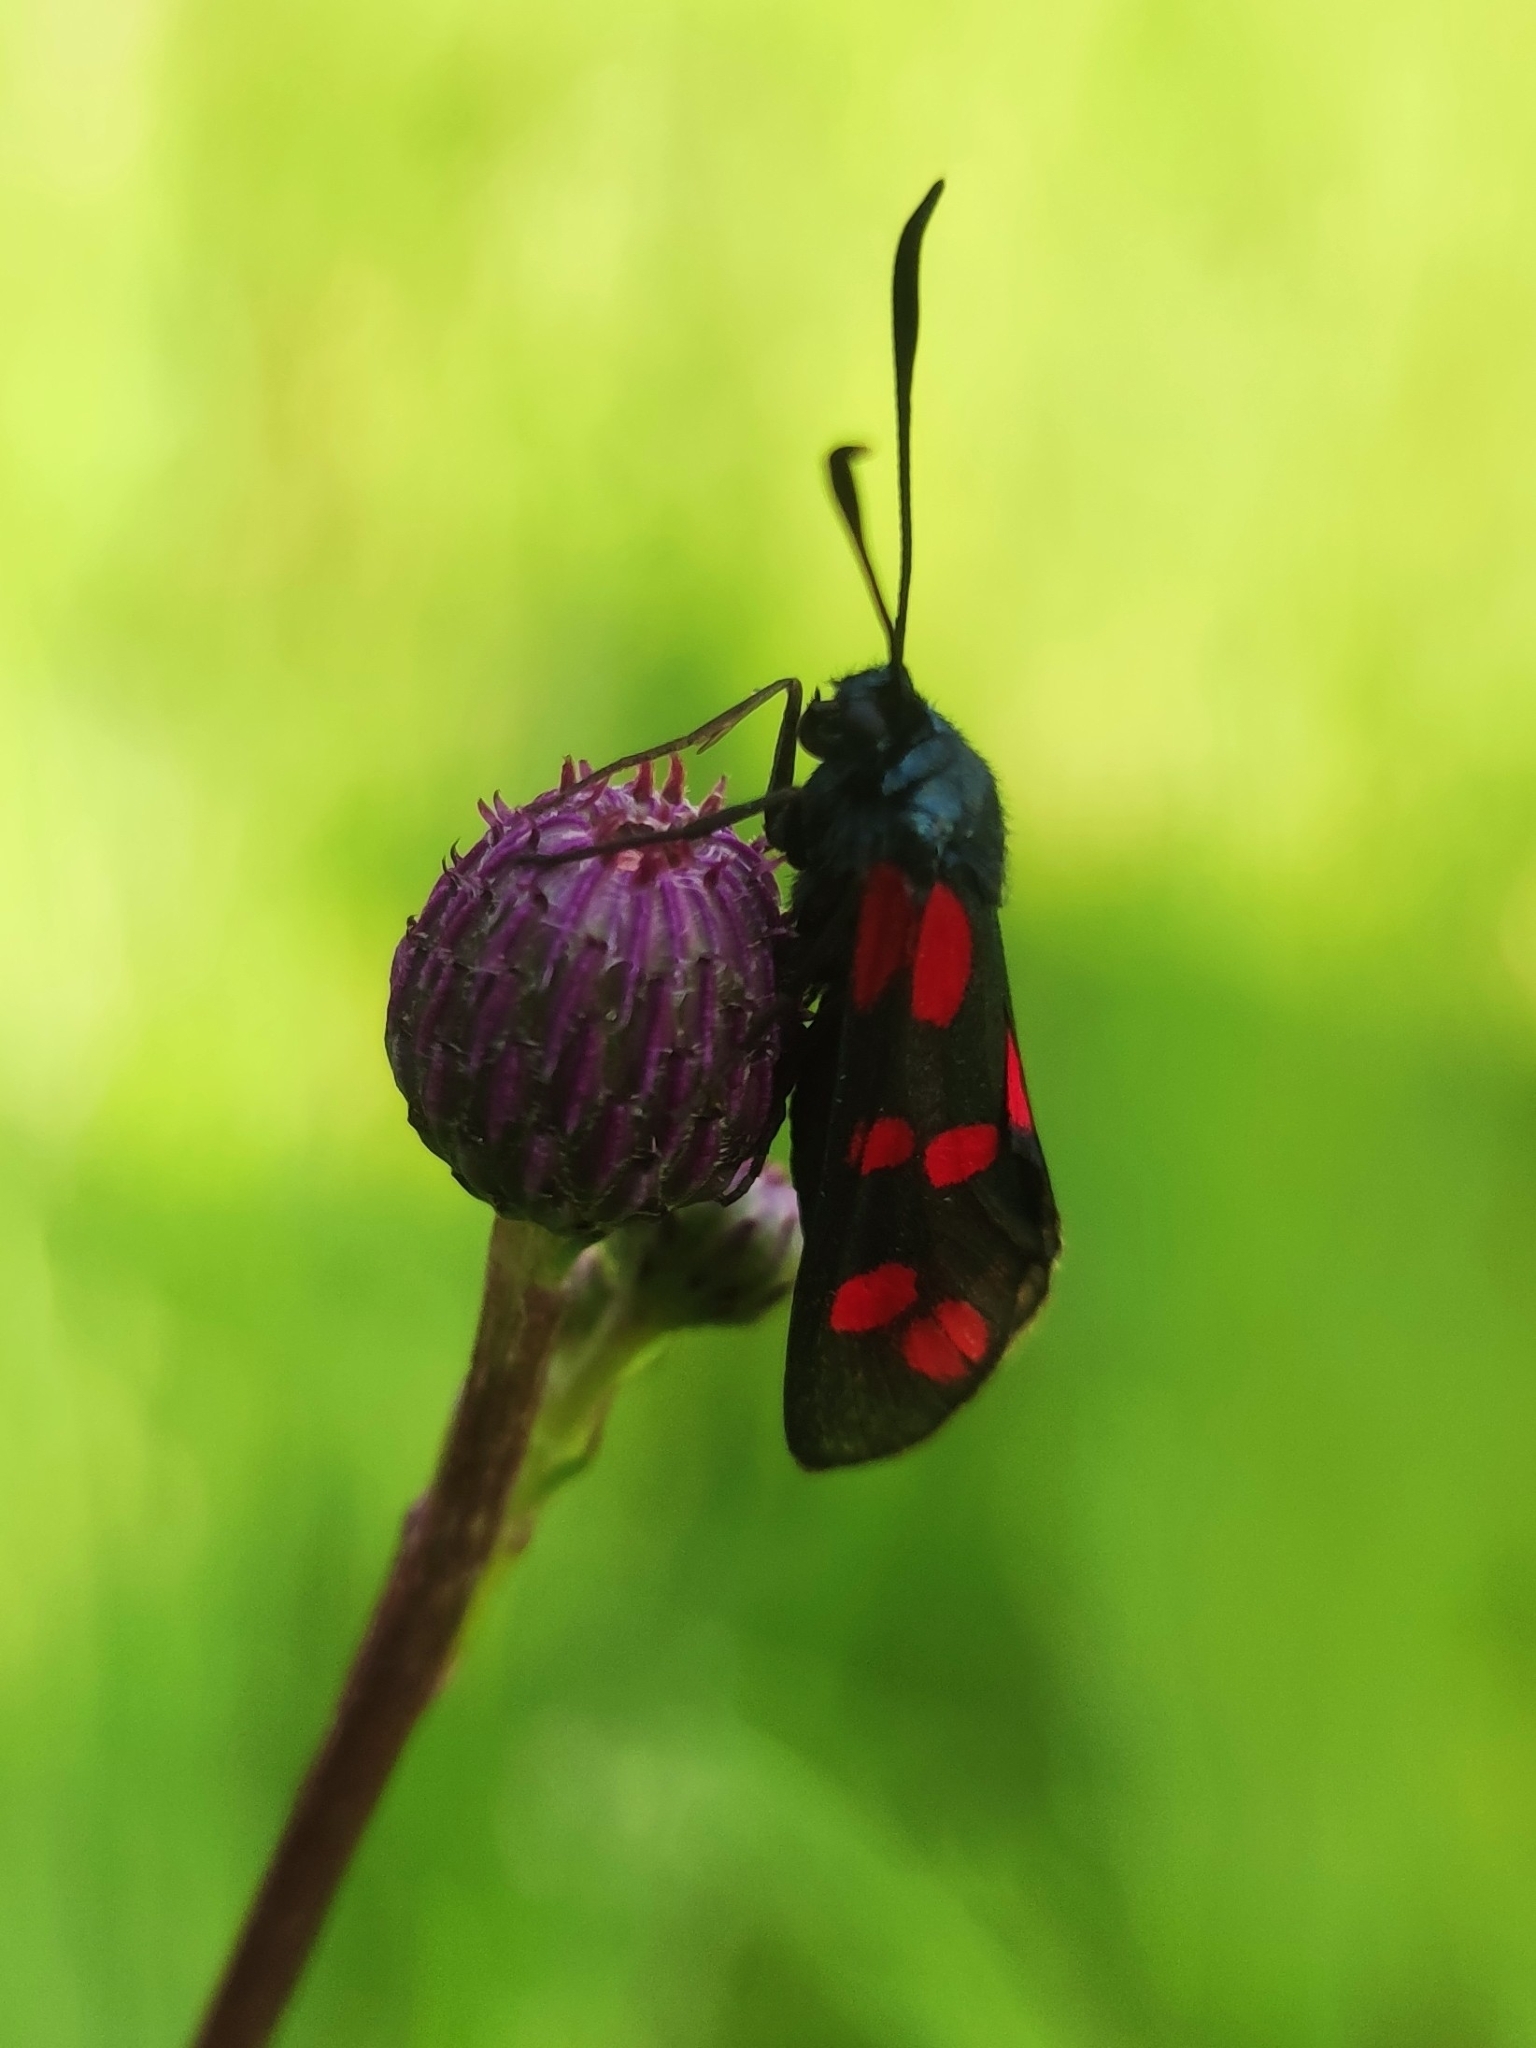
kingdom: Animalia
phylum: Arthropoda
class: Insecta
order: Lepidoptera
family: Zygaenidae
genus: Zygaena
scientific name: Zygaena filipendulae
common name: Six-spot burnet
